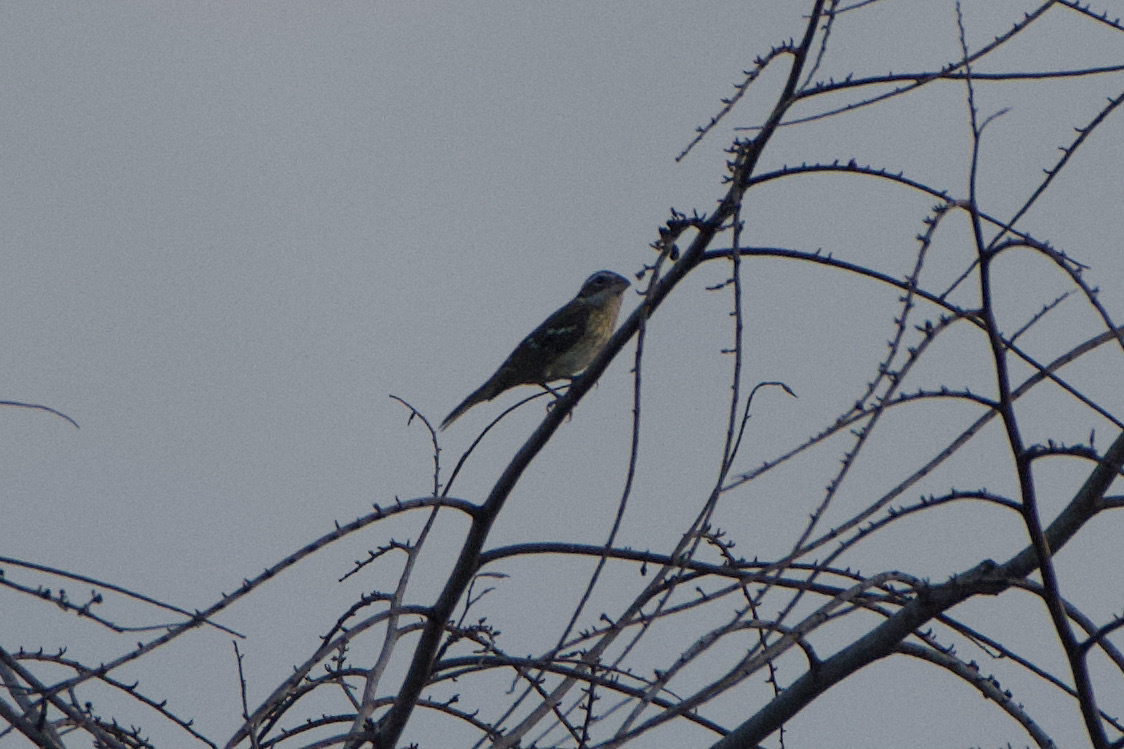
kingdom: Animalia
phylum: Chordata
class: Aves
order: Passeriformes
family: Cardinalidae
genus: Pheucticus
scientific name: Pheucticus ludovicianus
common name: Rose-breasted grosbeak
